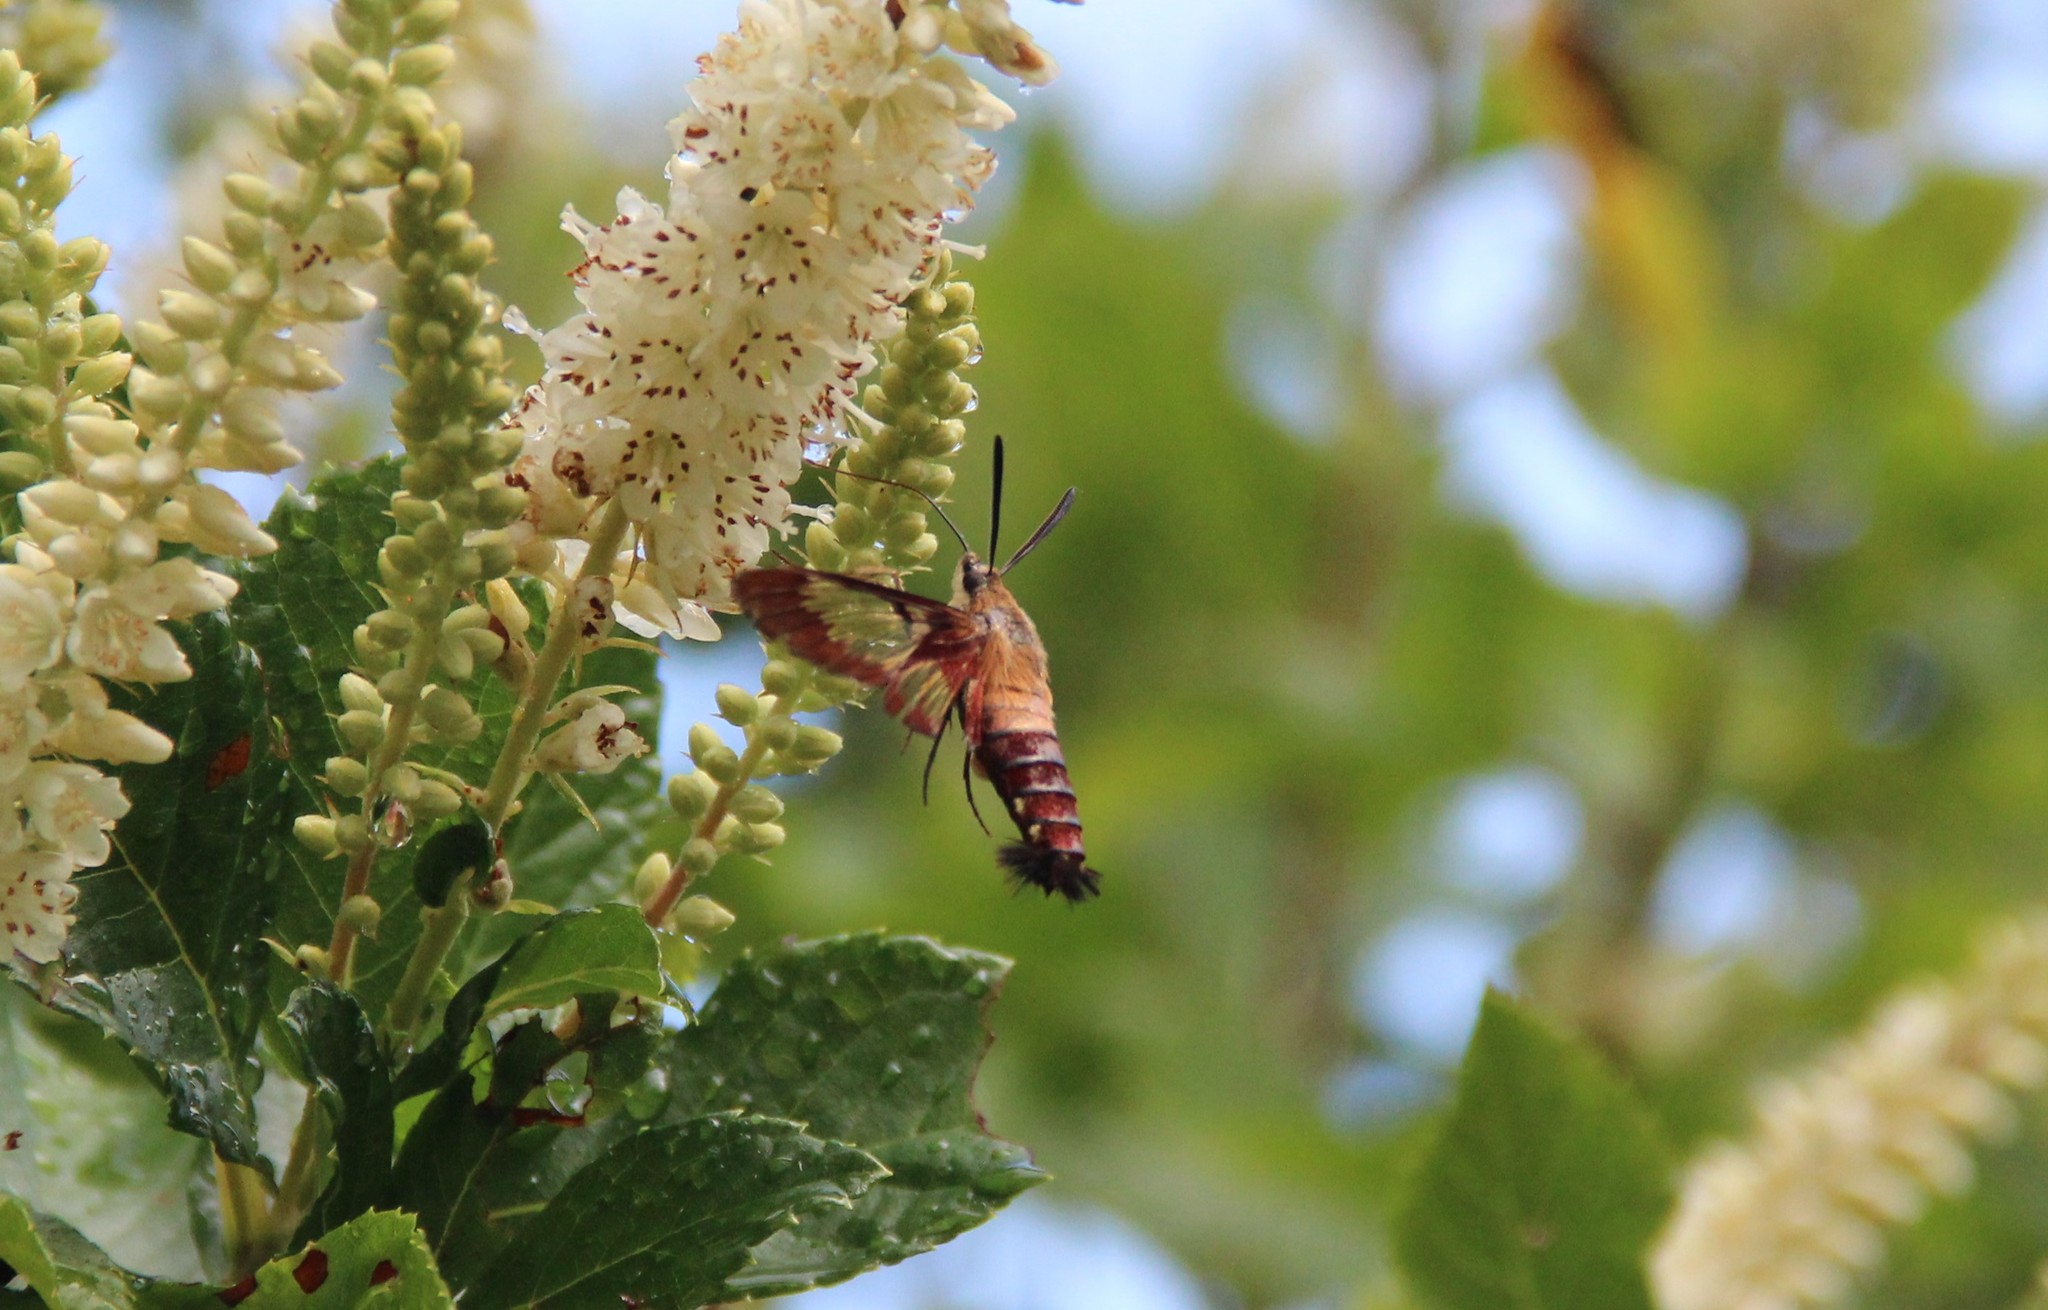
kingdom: Animalia
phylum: Arthropoda
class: Insecta
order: Lepidoptera
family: Sphingidae
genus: Hemaris
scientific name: Hemaris thysbe
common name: Common clear-wing
